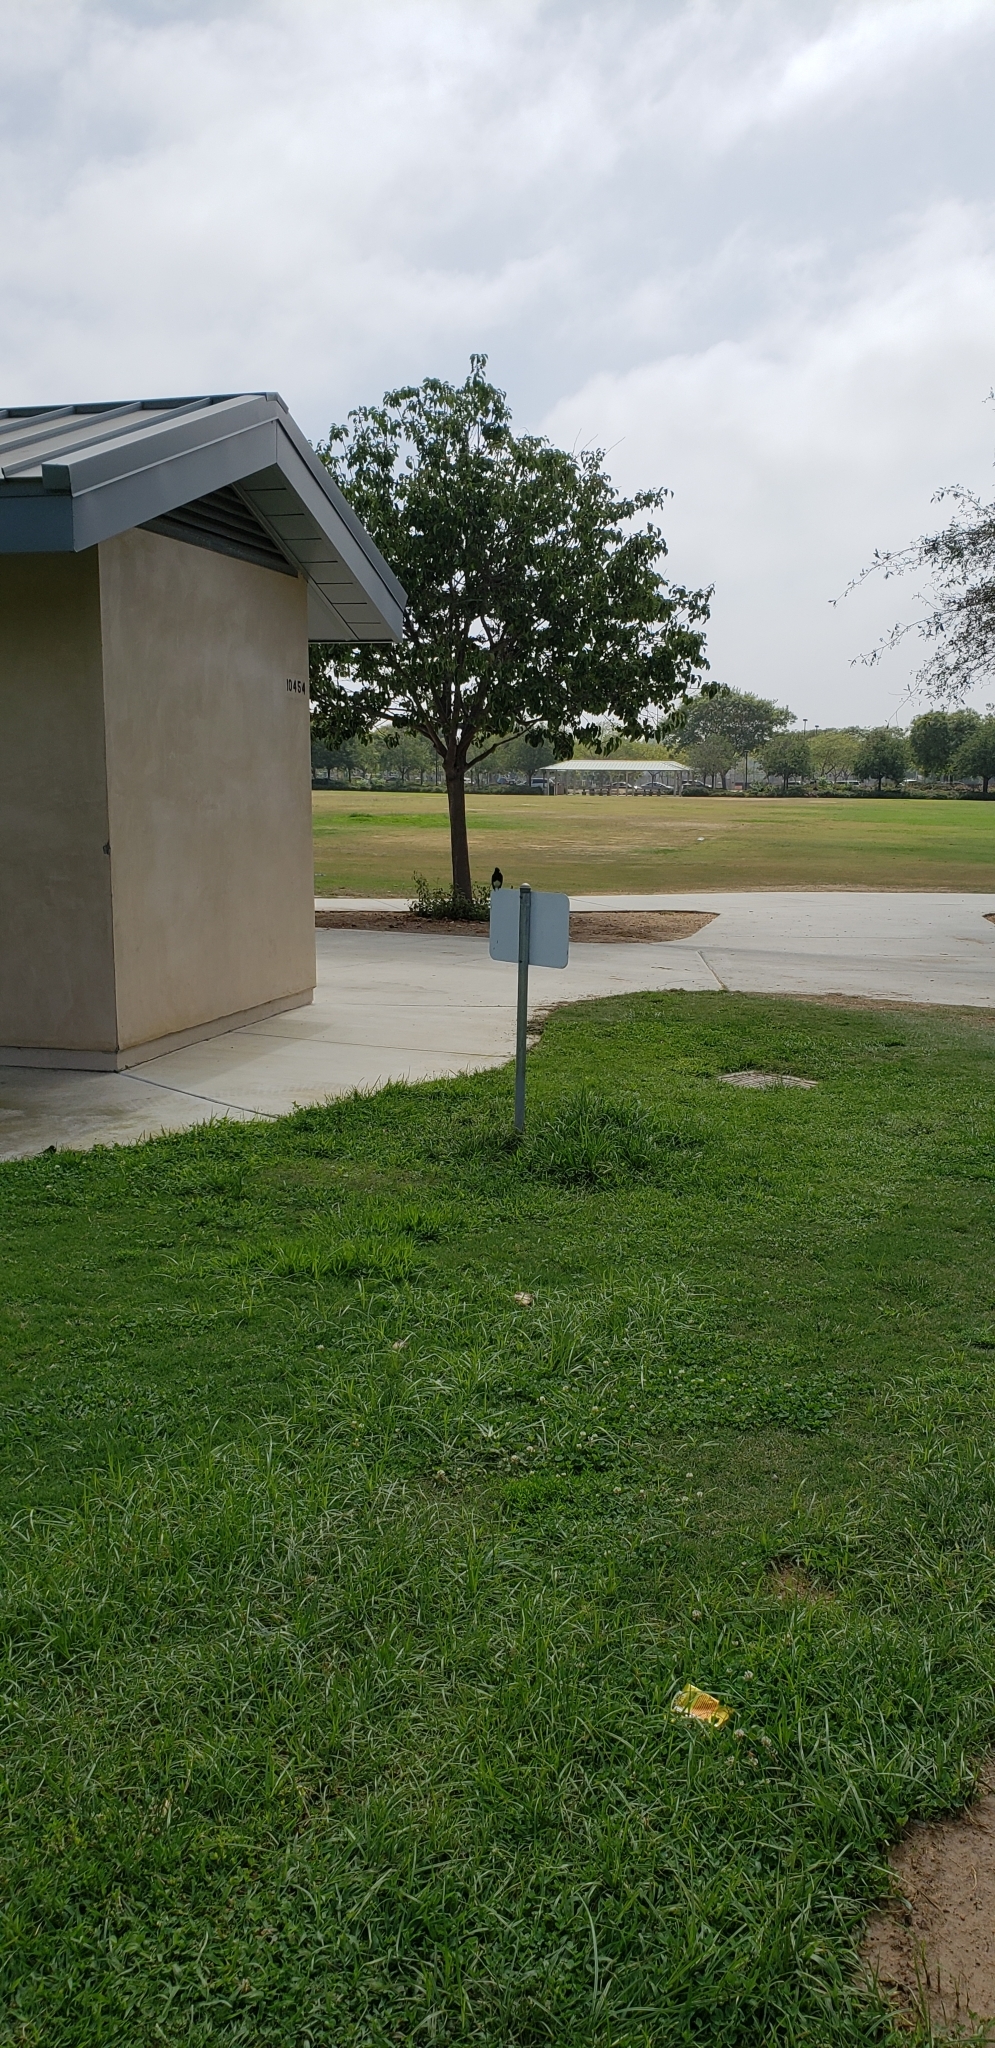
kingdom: Animalia
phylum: Chordata
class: Aves
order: Passeriformes
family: Tyrannidae
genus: Sayornis
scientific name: Sayornis nigricans
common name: Black phoebe
